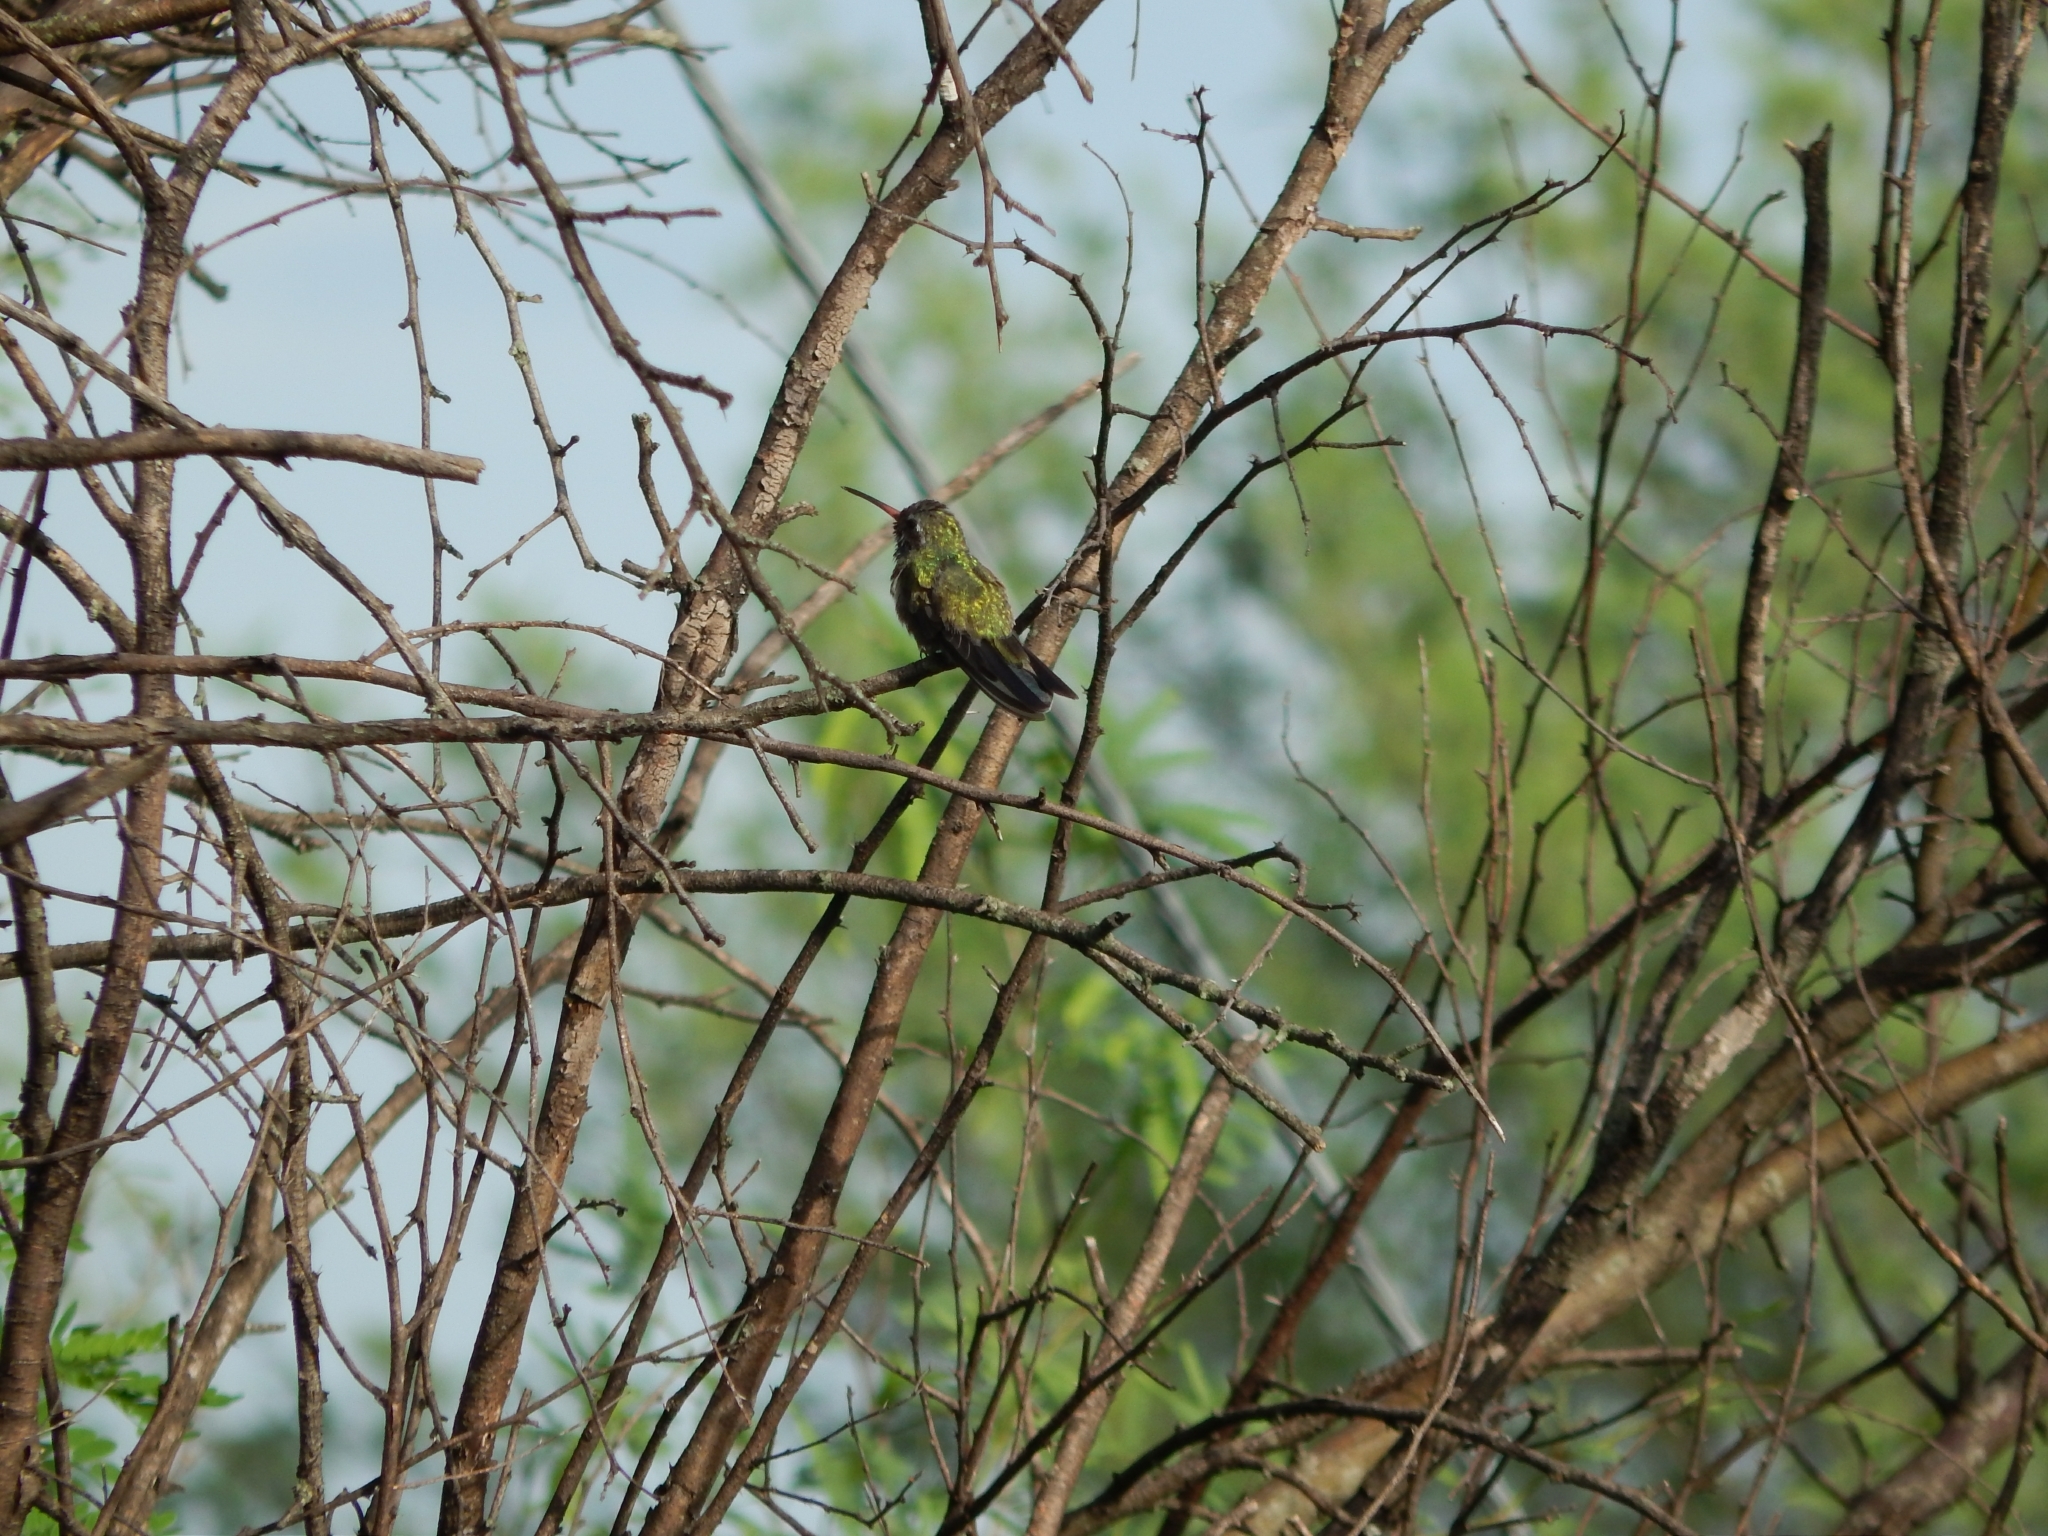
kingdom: Animalia
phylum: Chordata
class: Aves
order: Apodiformes
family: Trochilidae
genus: Cynanthus
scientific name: Cynanthus latirostris
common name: Broad-billed hummingbird
